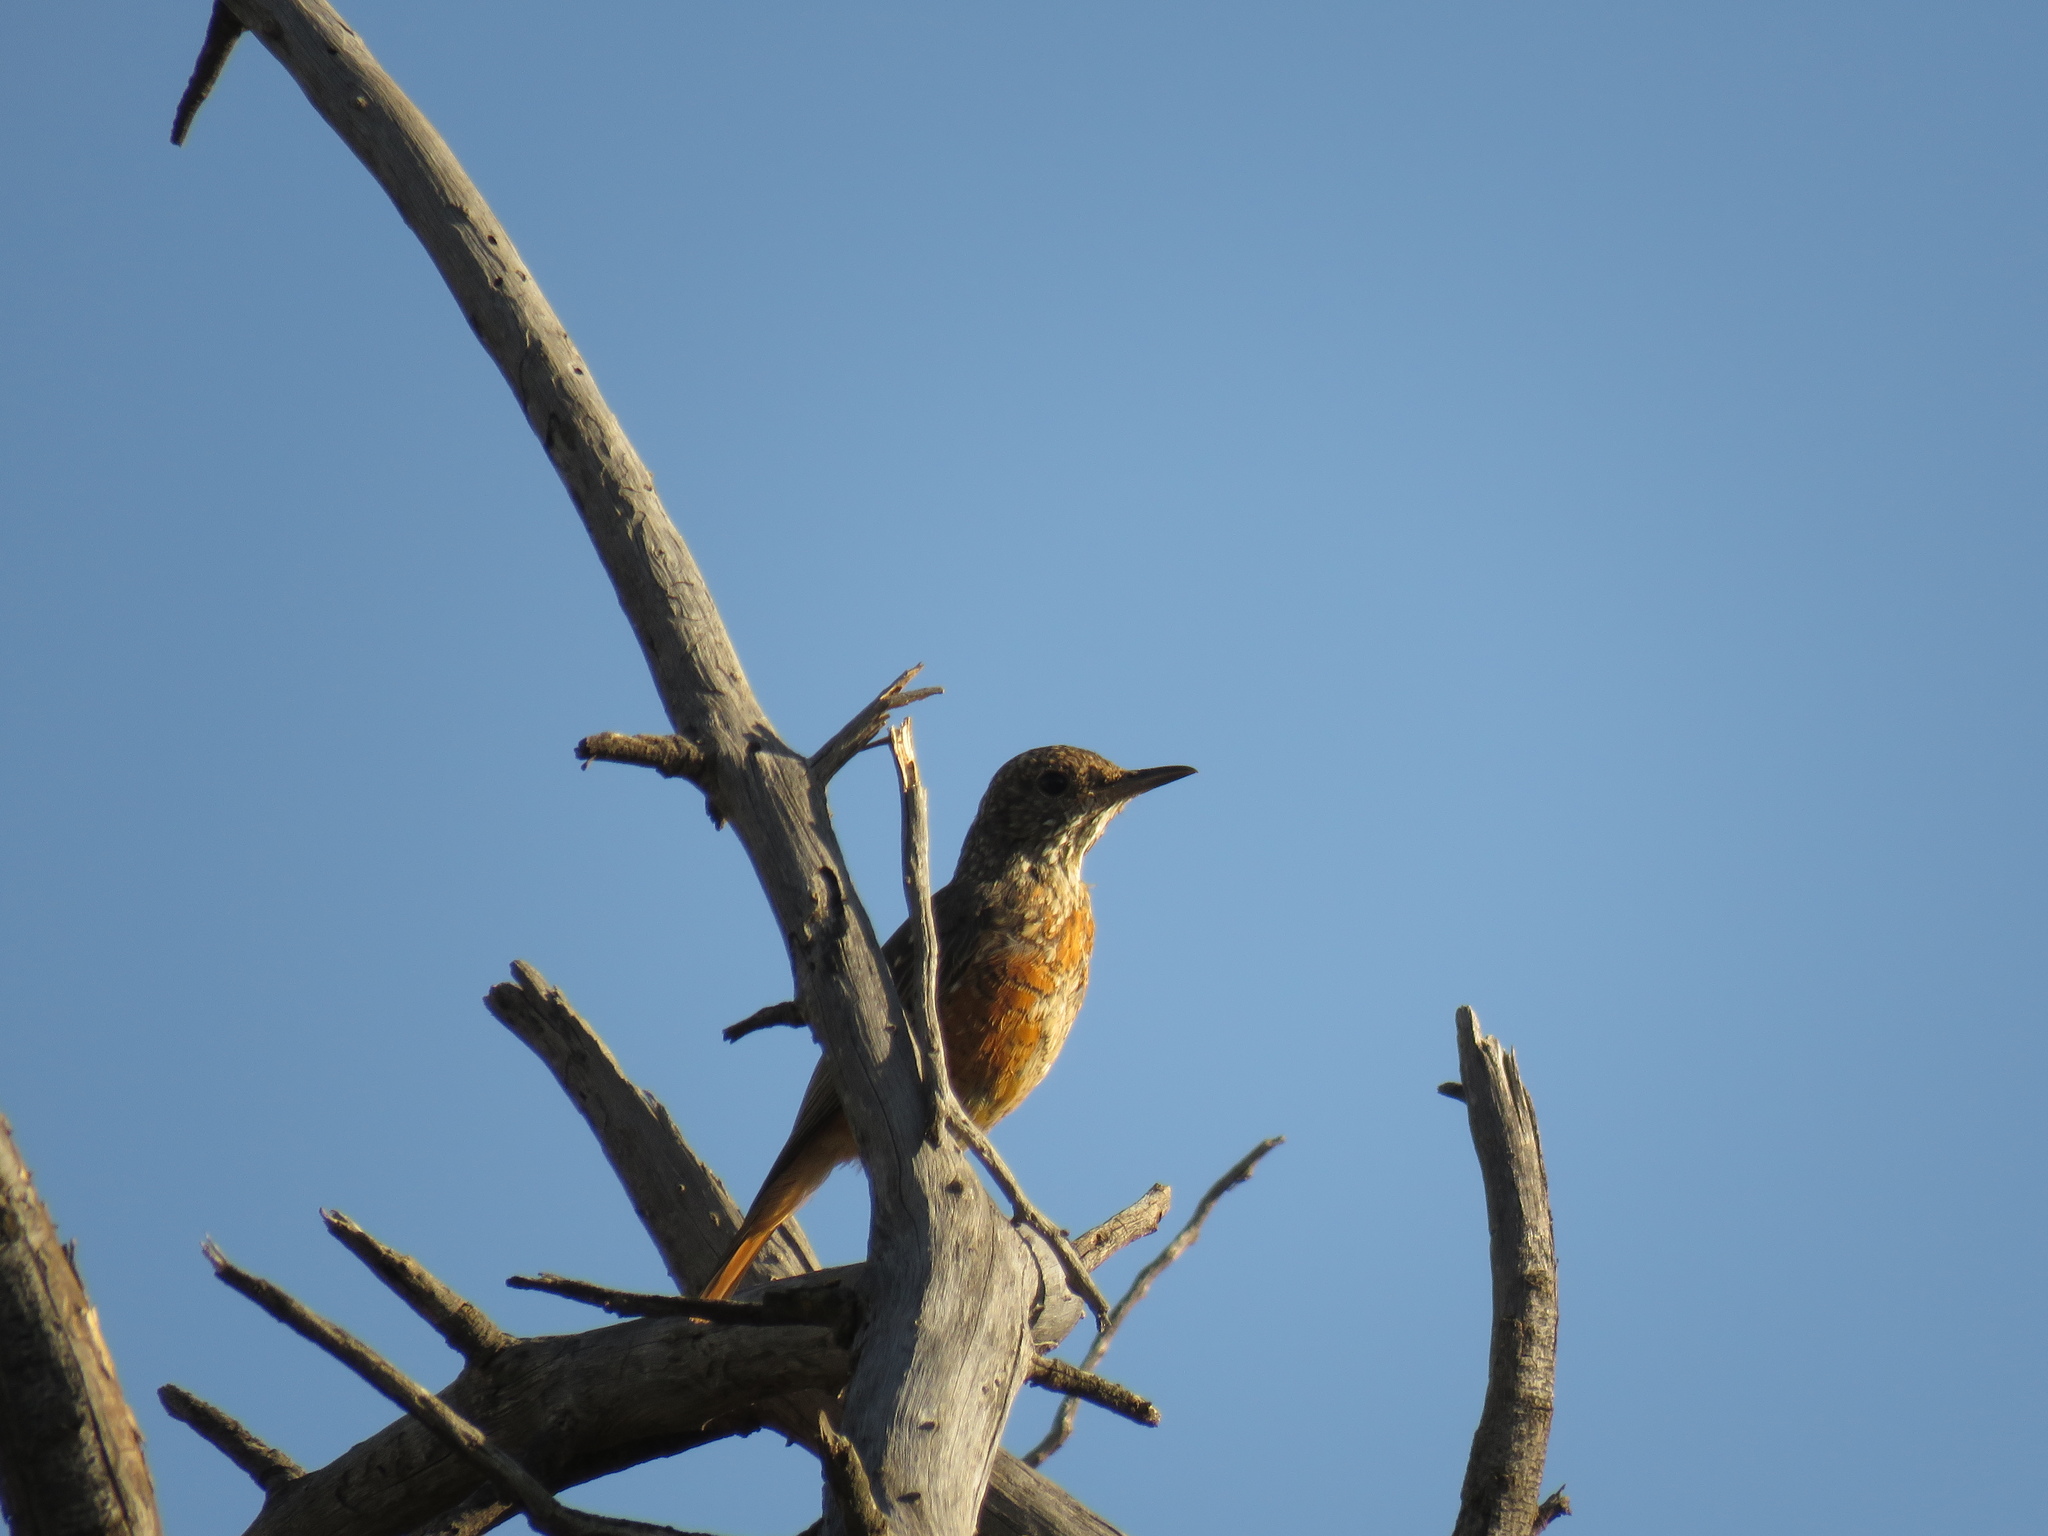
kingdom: Animalia
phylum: Chordata
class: Aves
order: Passeriformes
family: Muscicapidae
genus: Monticola
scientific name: Monticola brevipes
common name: Short-toed rock thrush
